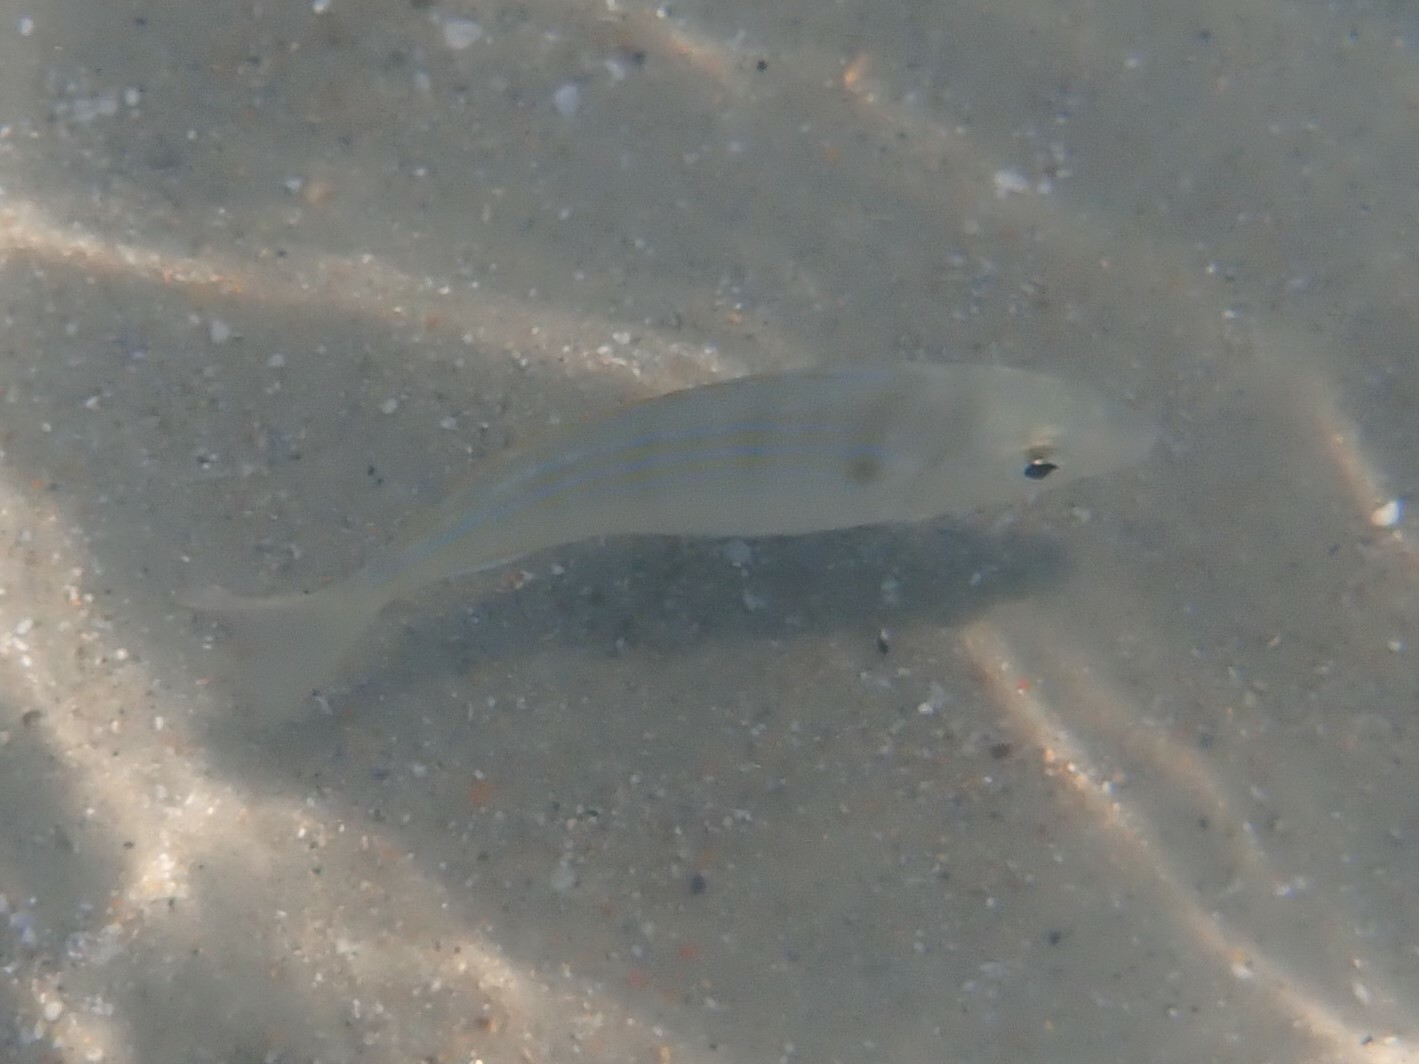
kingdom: Animalia
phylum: Chordata
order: Perciformes
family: Sparidae
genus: Lagodon
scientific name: Lagodon rhomboides
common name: Pinfish
